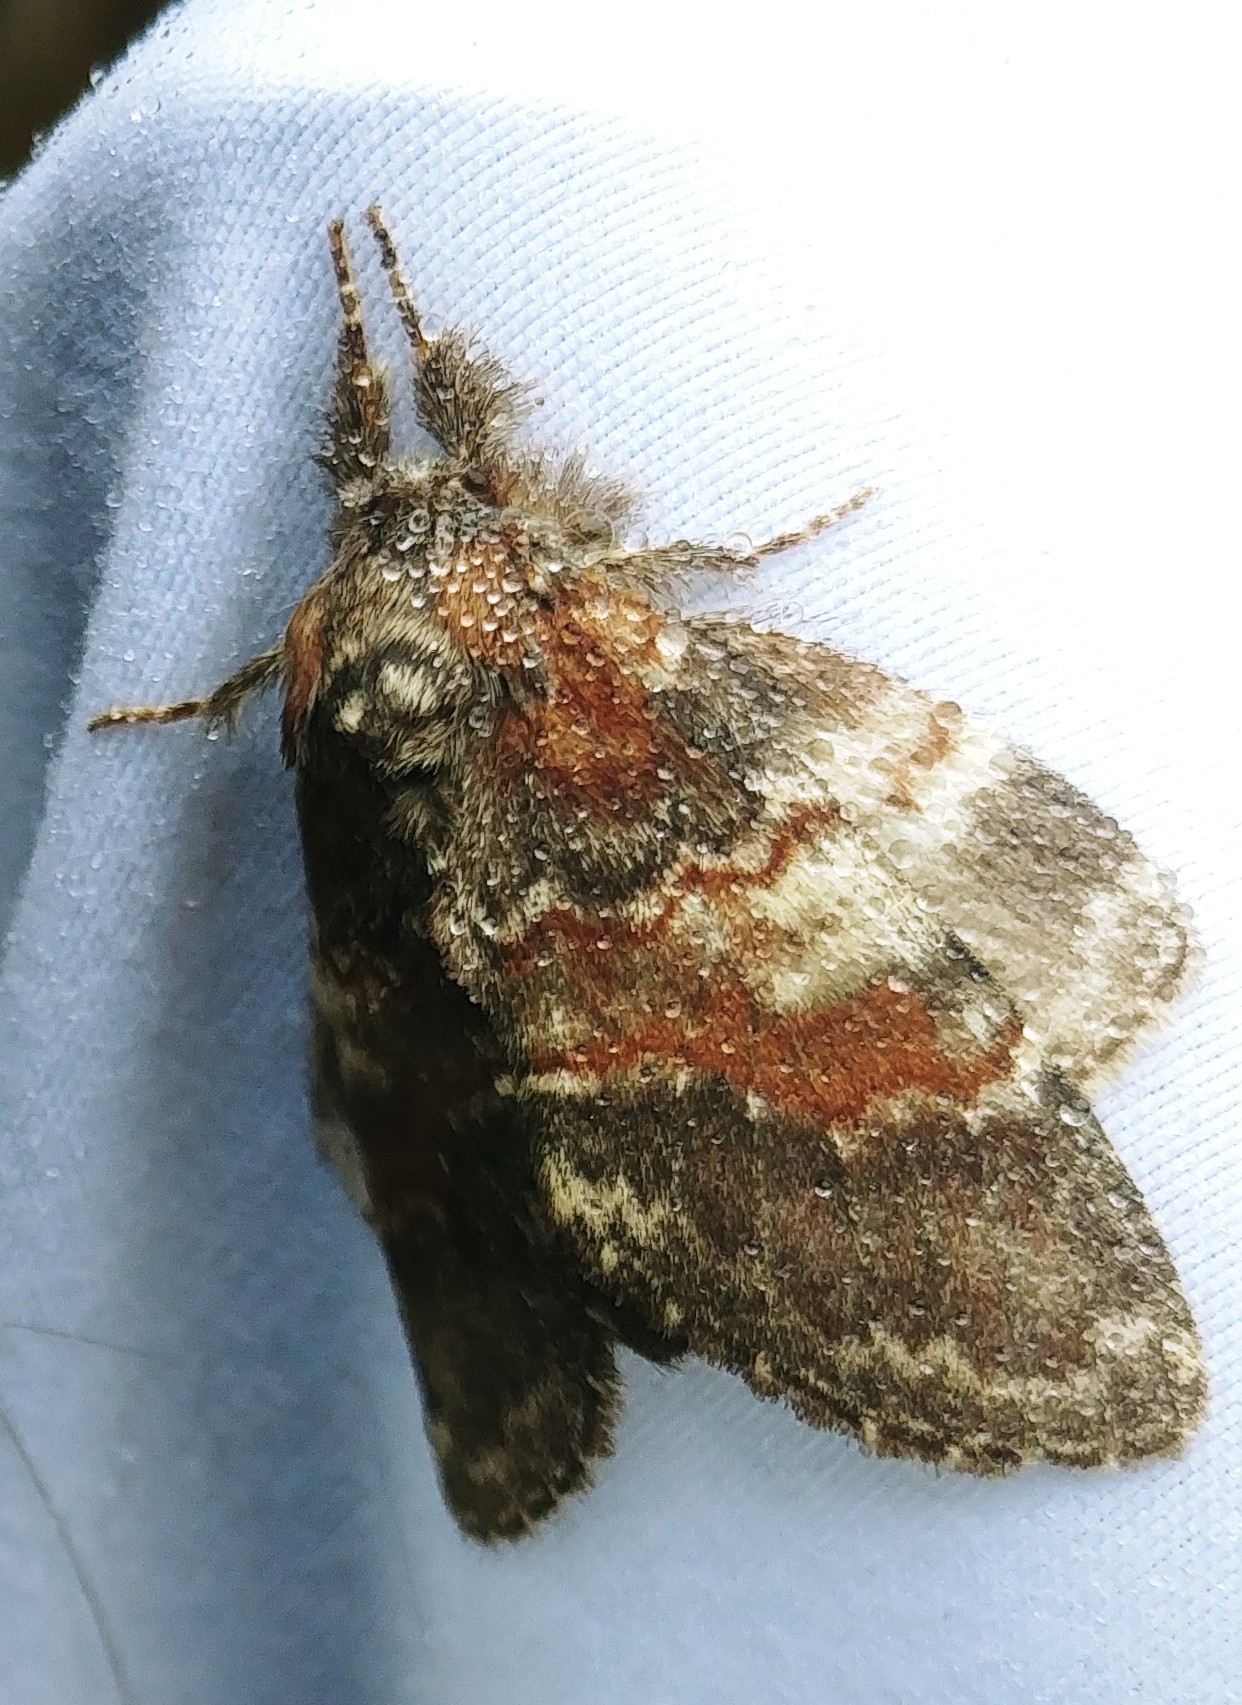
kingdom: Animalia
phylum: Arthropoda
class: Insecta
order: Lepidoptera
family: Notodontidae
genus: Peridea
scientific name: Peridea ferruginea
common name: Chocolate prominent
